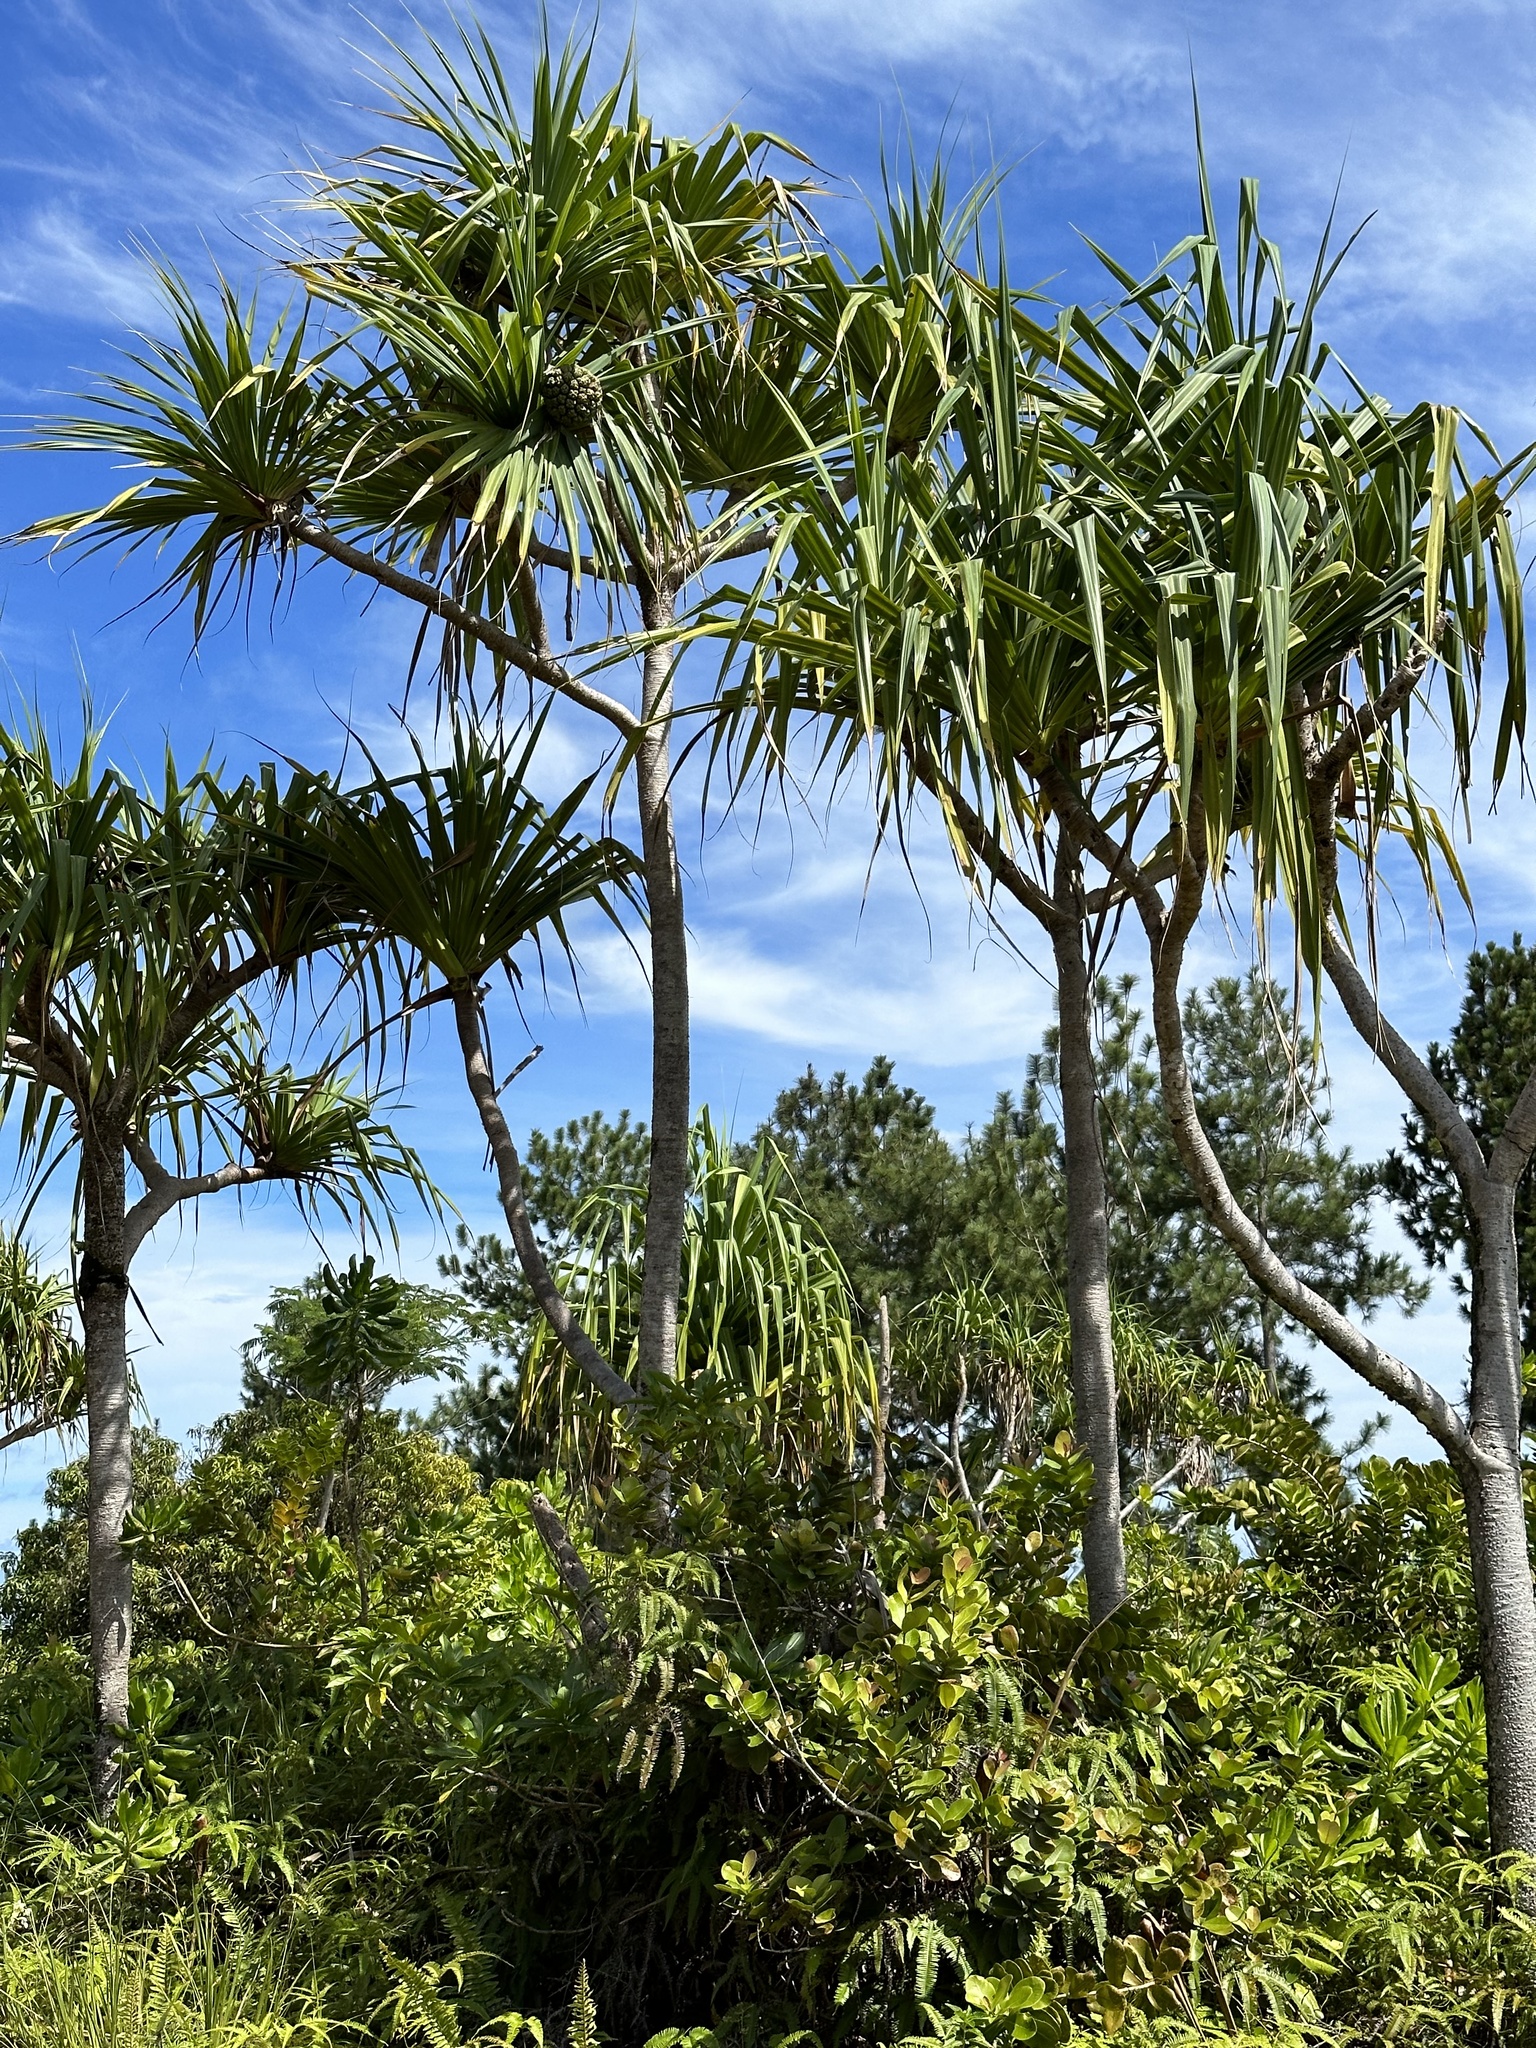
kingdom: Plantae
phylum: Tracheophyta
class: Liliopsida
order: Pandanales
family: Pandanaceae
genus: Pandanus
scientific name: Pandanus tectorius
